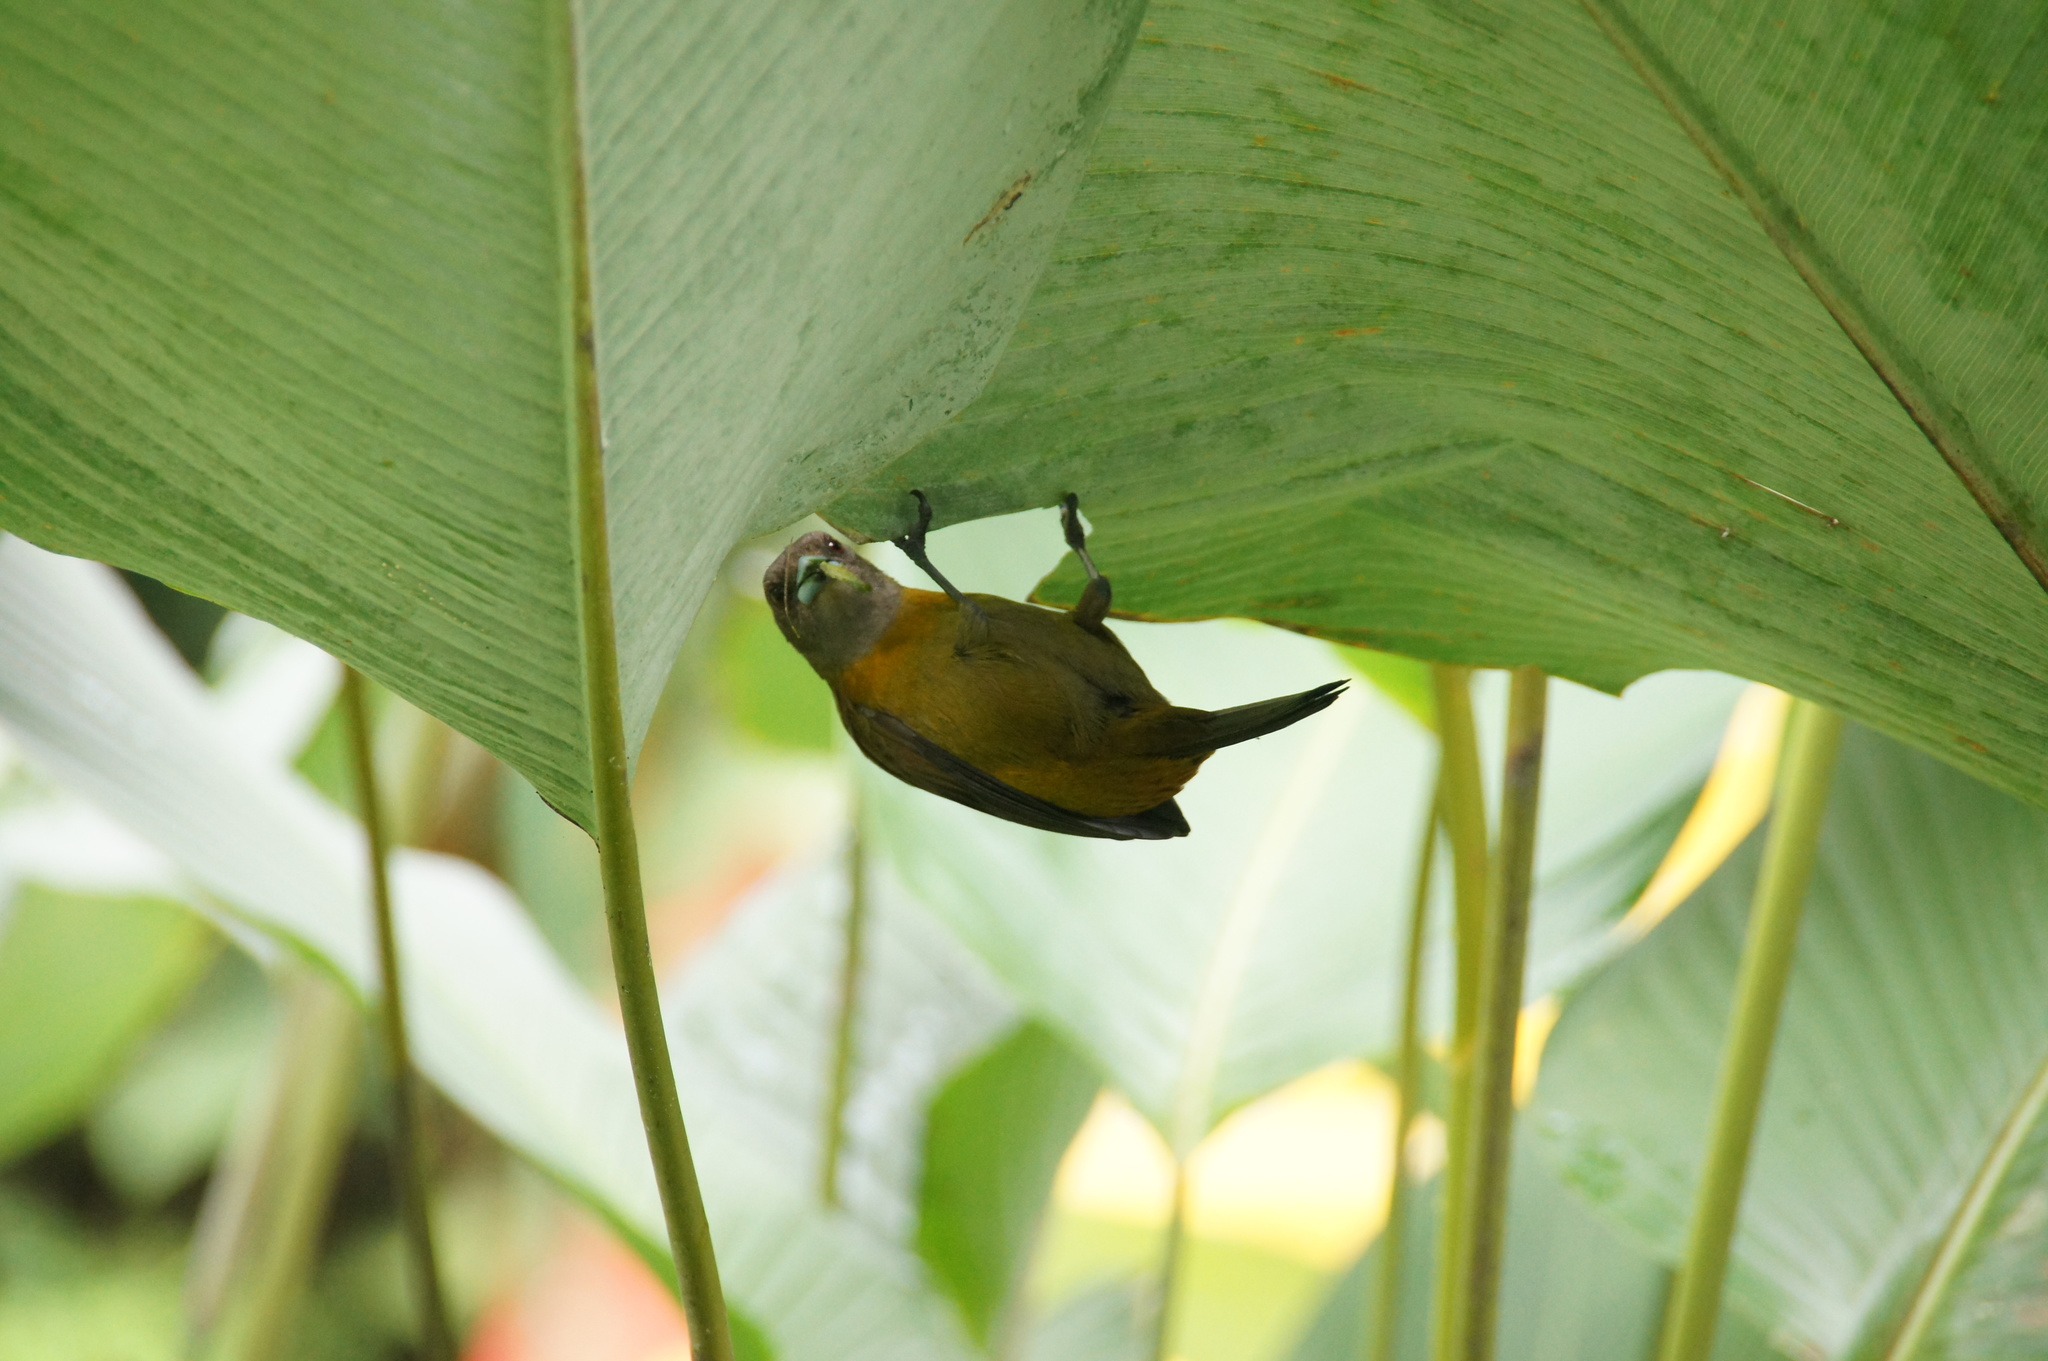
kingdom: Animalia
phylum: Chordata
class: Aves
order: Passeriformes
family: Thraupidae
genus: Ramphocelus
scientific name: Ramphocelus passerinii
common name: Passerini's tanager
